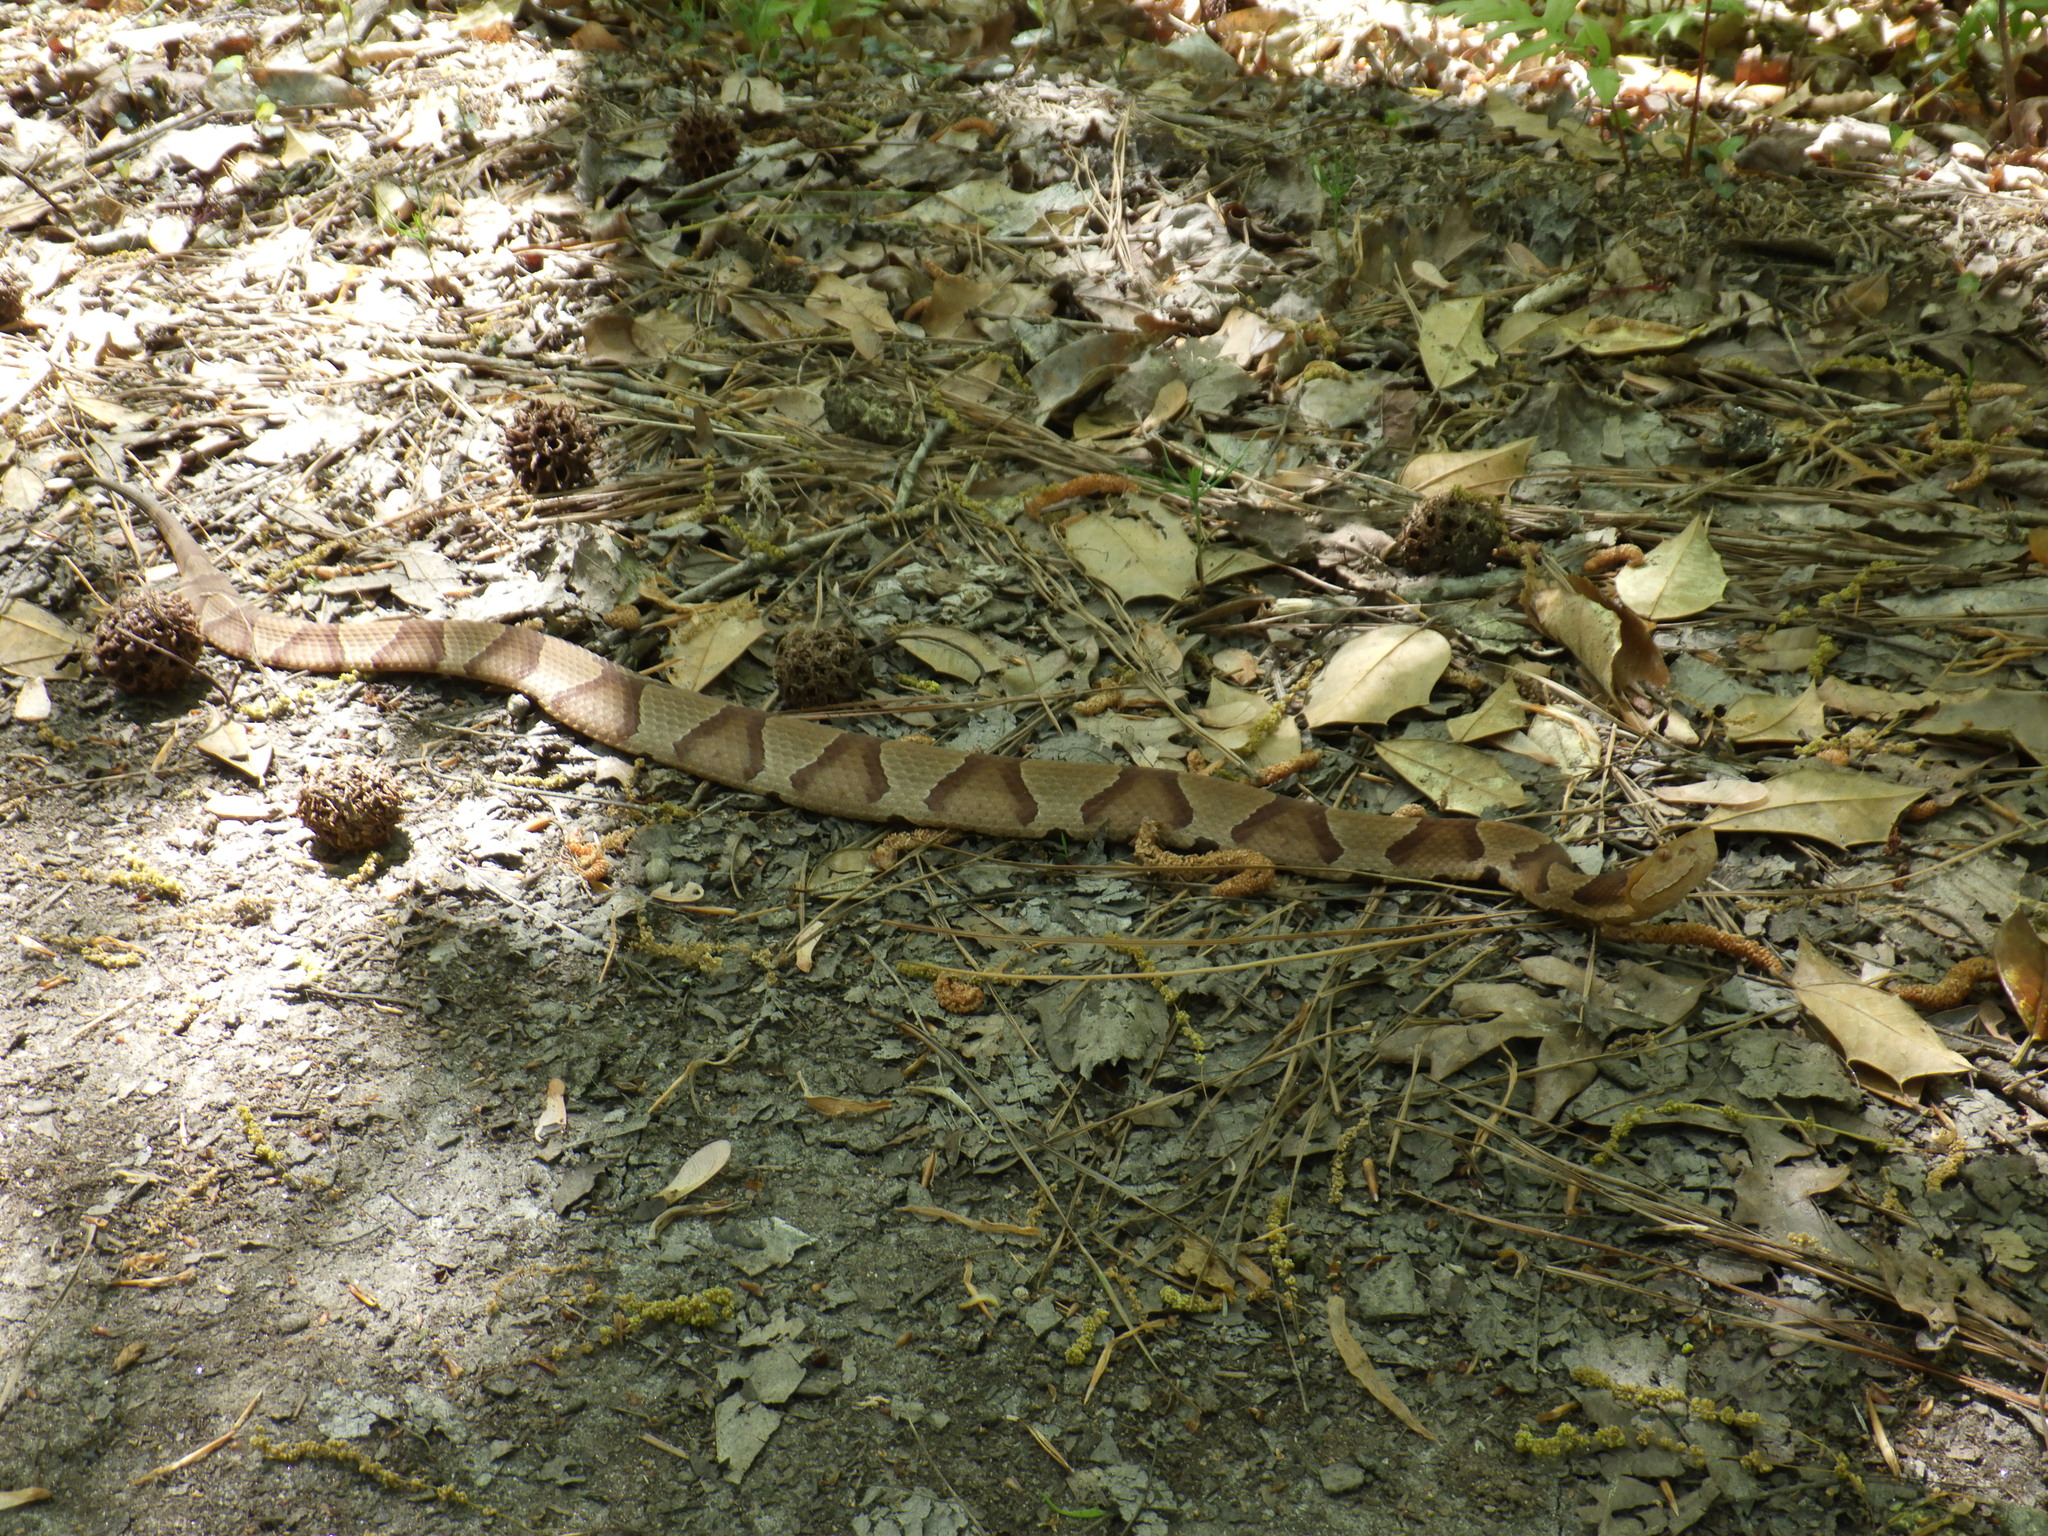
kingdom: Animalia
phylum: Chordata
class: Squamata
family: Viperidae
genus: Agkistrodon
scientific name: Agkistrodon contortrix
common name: Northern copperhead
